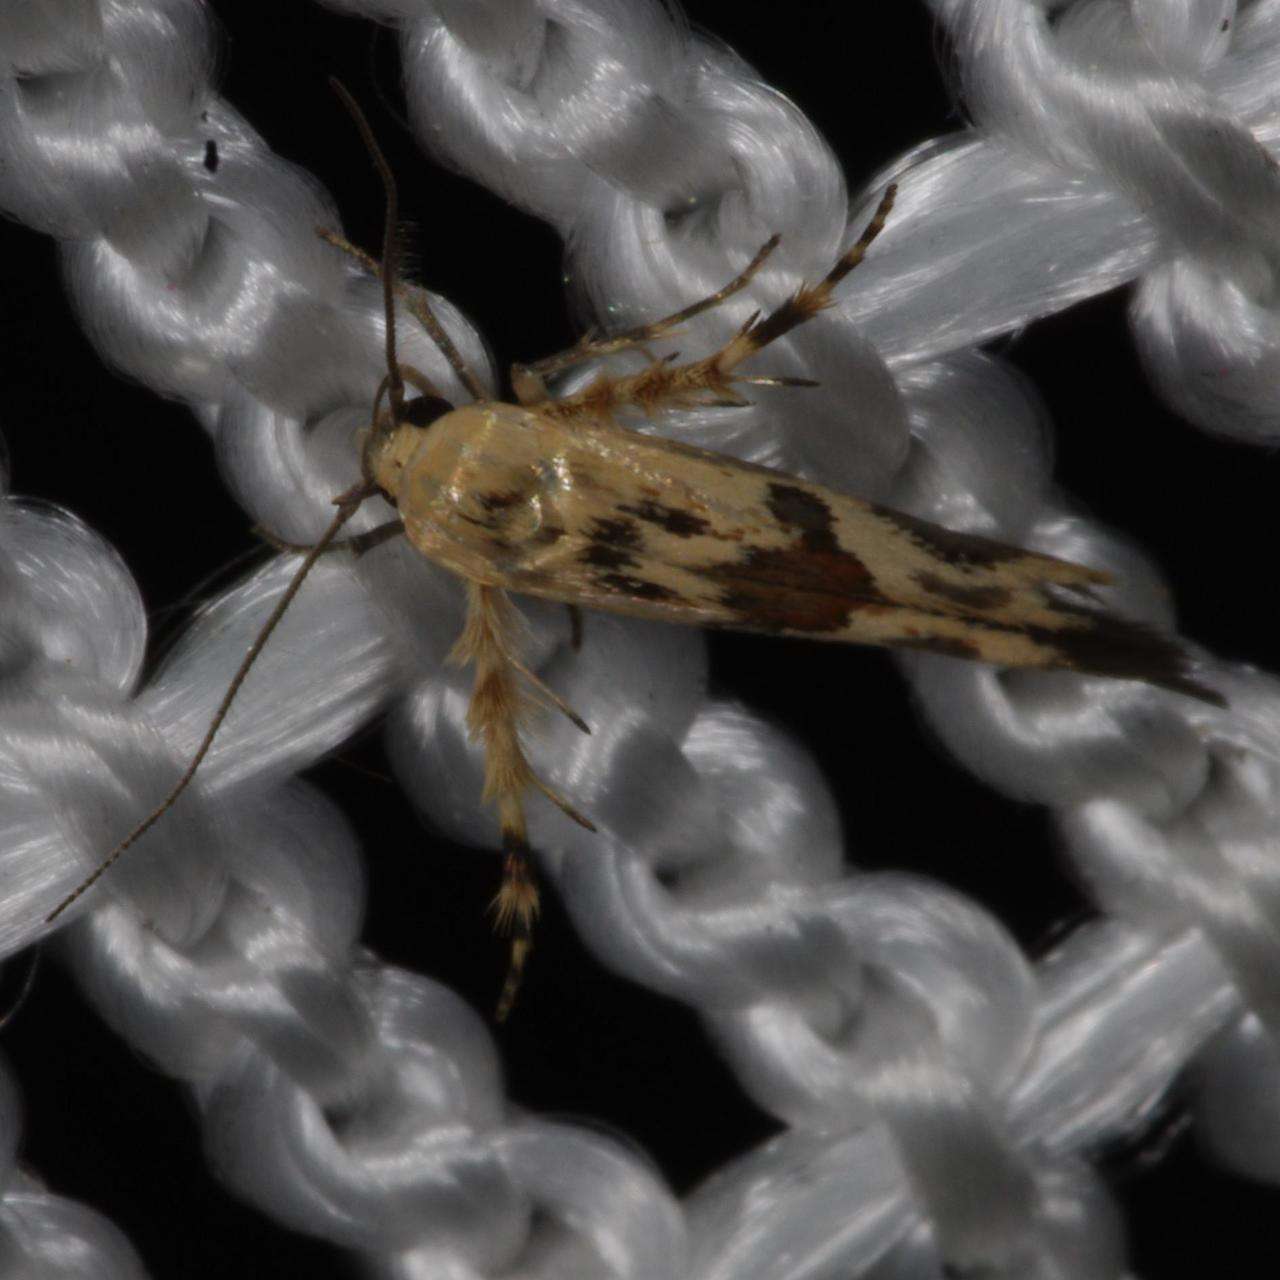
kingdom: Animalia
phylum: Arthropoda
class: Insecta
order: Lepidoptera
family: Stathmopodidae
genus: Stathmopoda
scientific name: Stathmopoda melanochra
